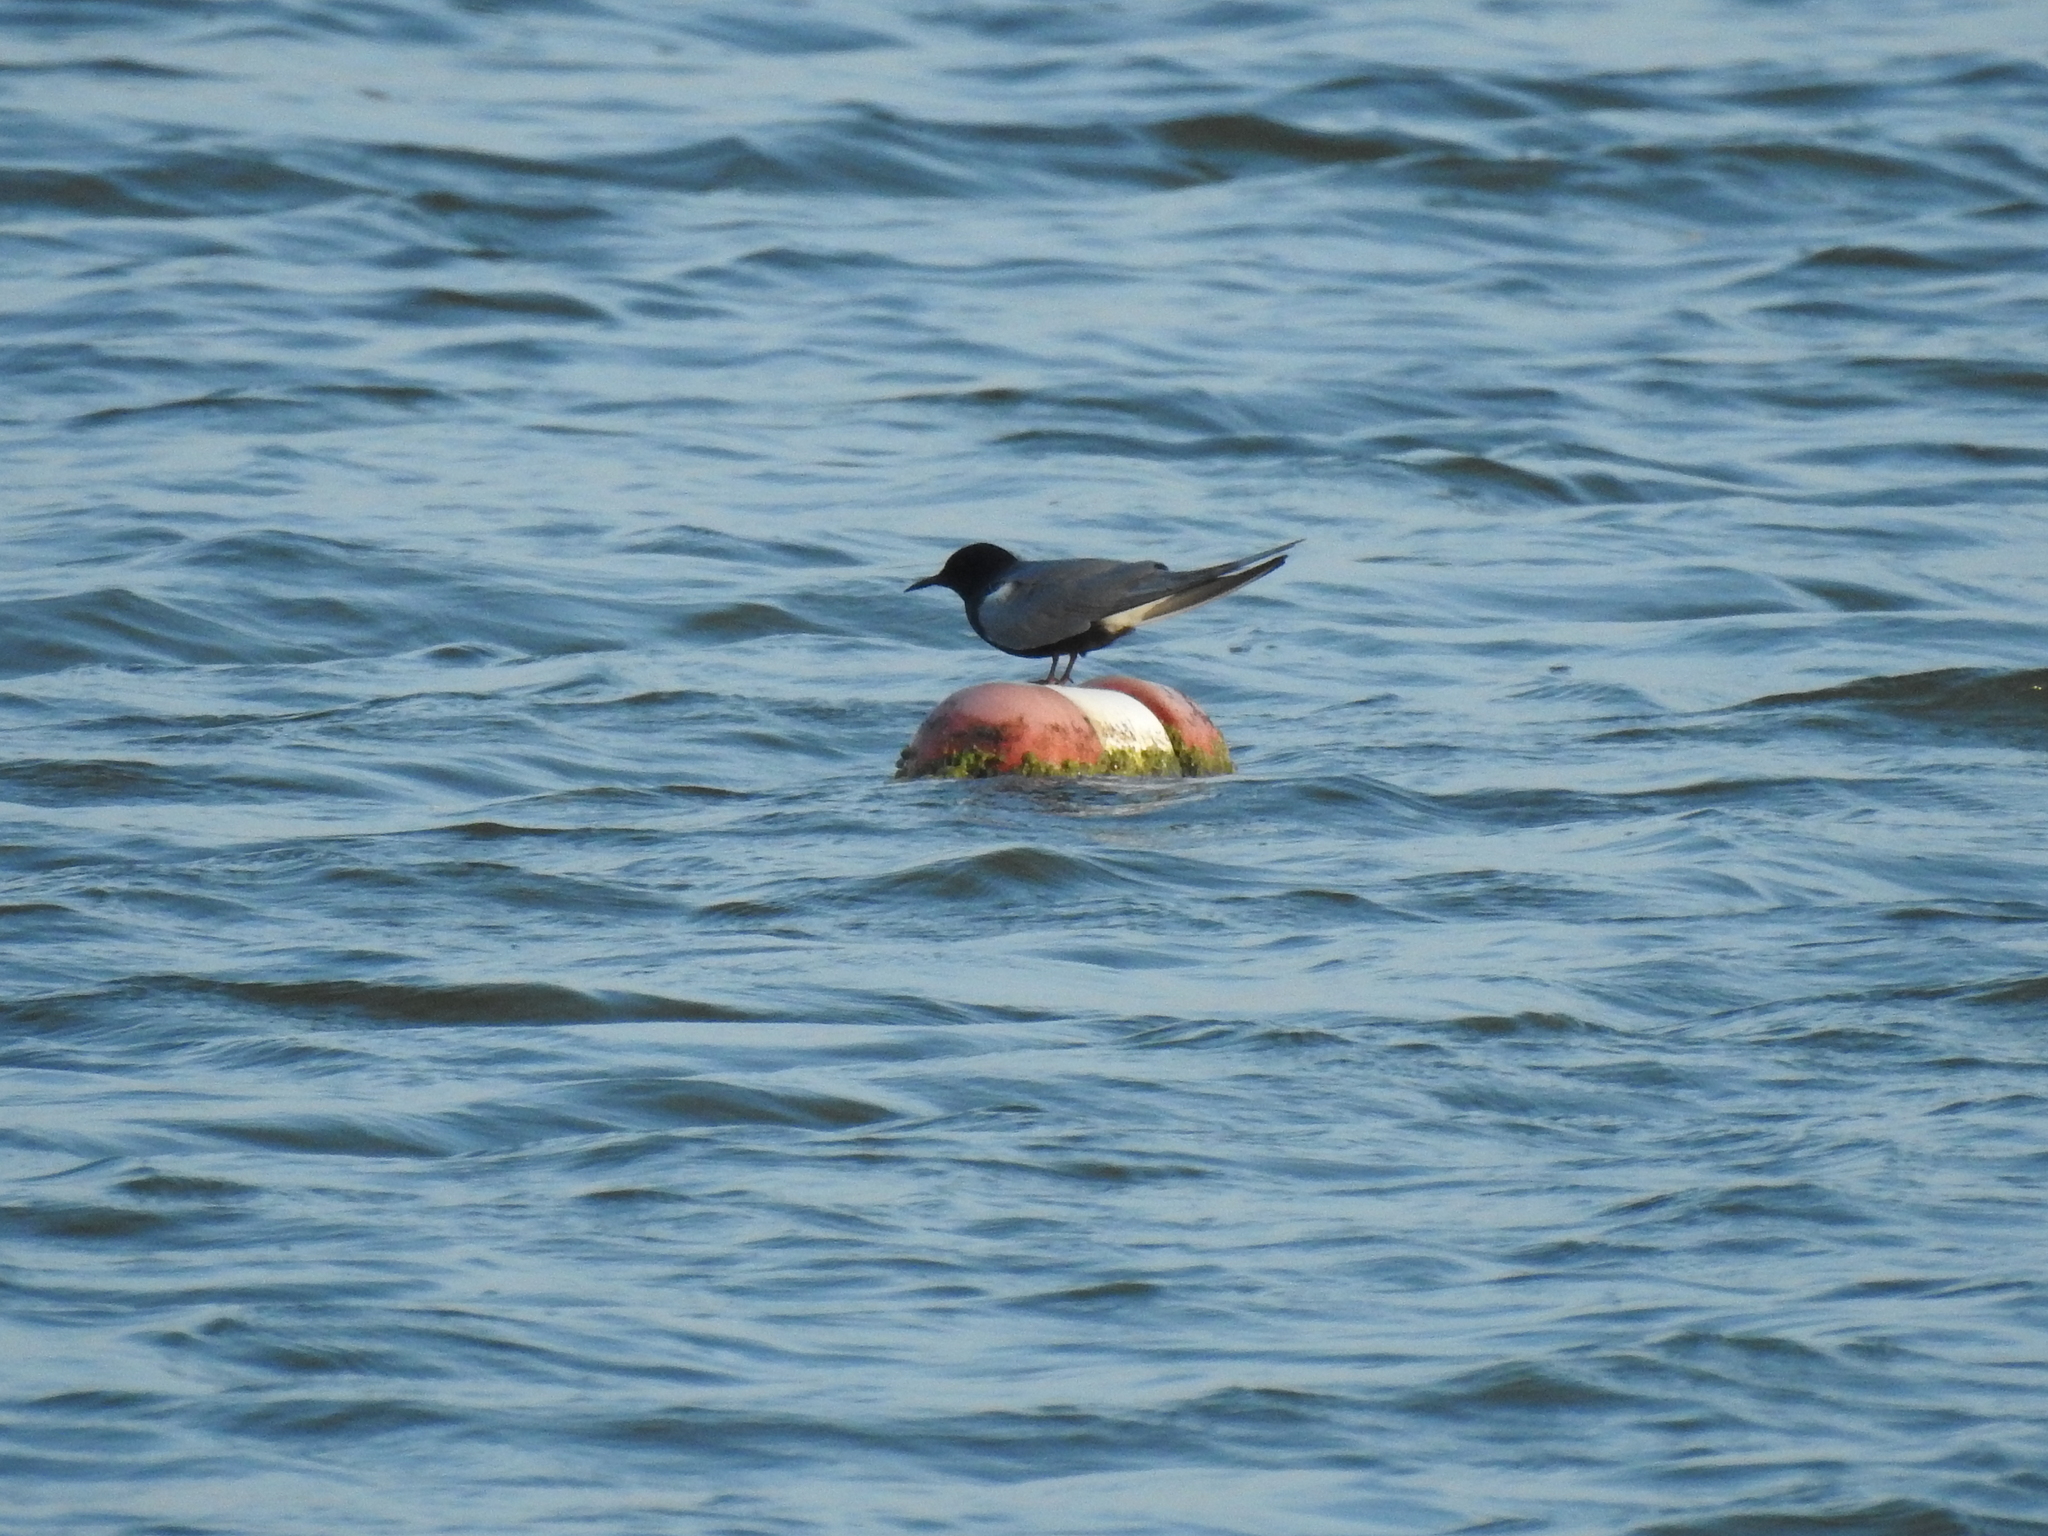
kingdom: Animalia
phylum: Chordata
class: Aves
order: Charadriiformes
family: Laridae
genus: Chlidonias
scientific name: Chlidonias niger
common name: Black tern
